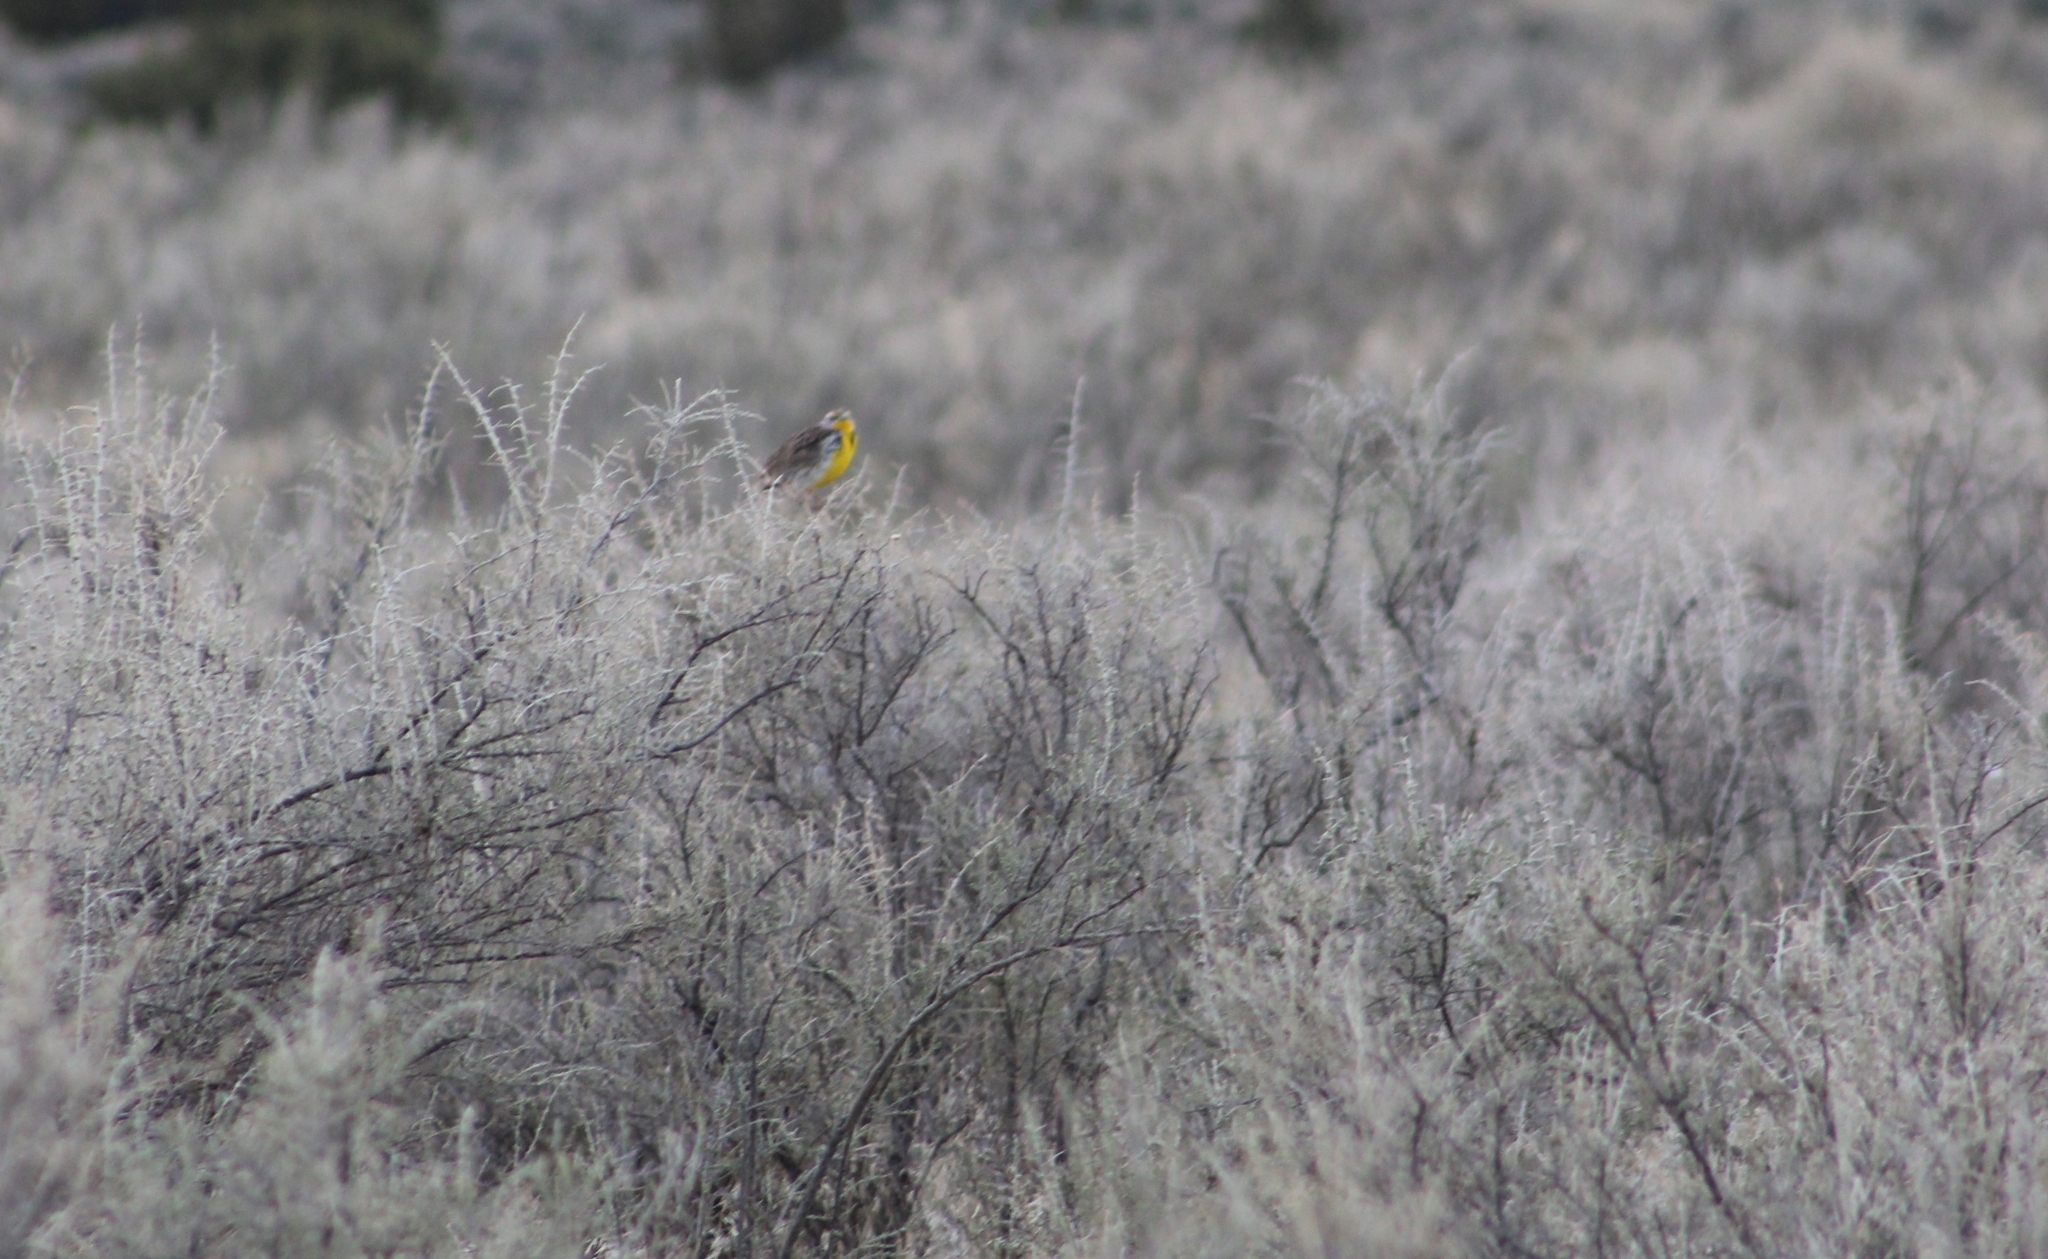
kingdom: Animalia
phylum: Chordata
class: Aves
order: Passeriformes
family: Icteridae
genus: Sturnella
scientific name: Sturnella neglecta
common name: Western meadowlark
